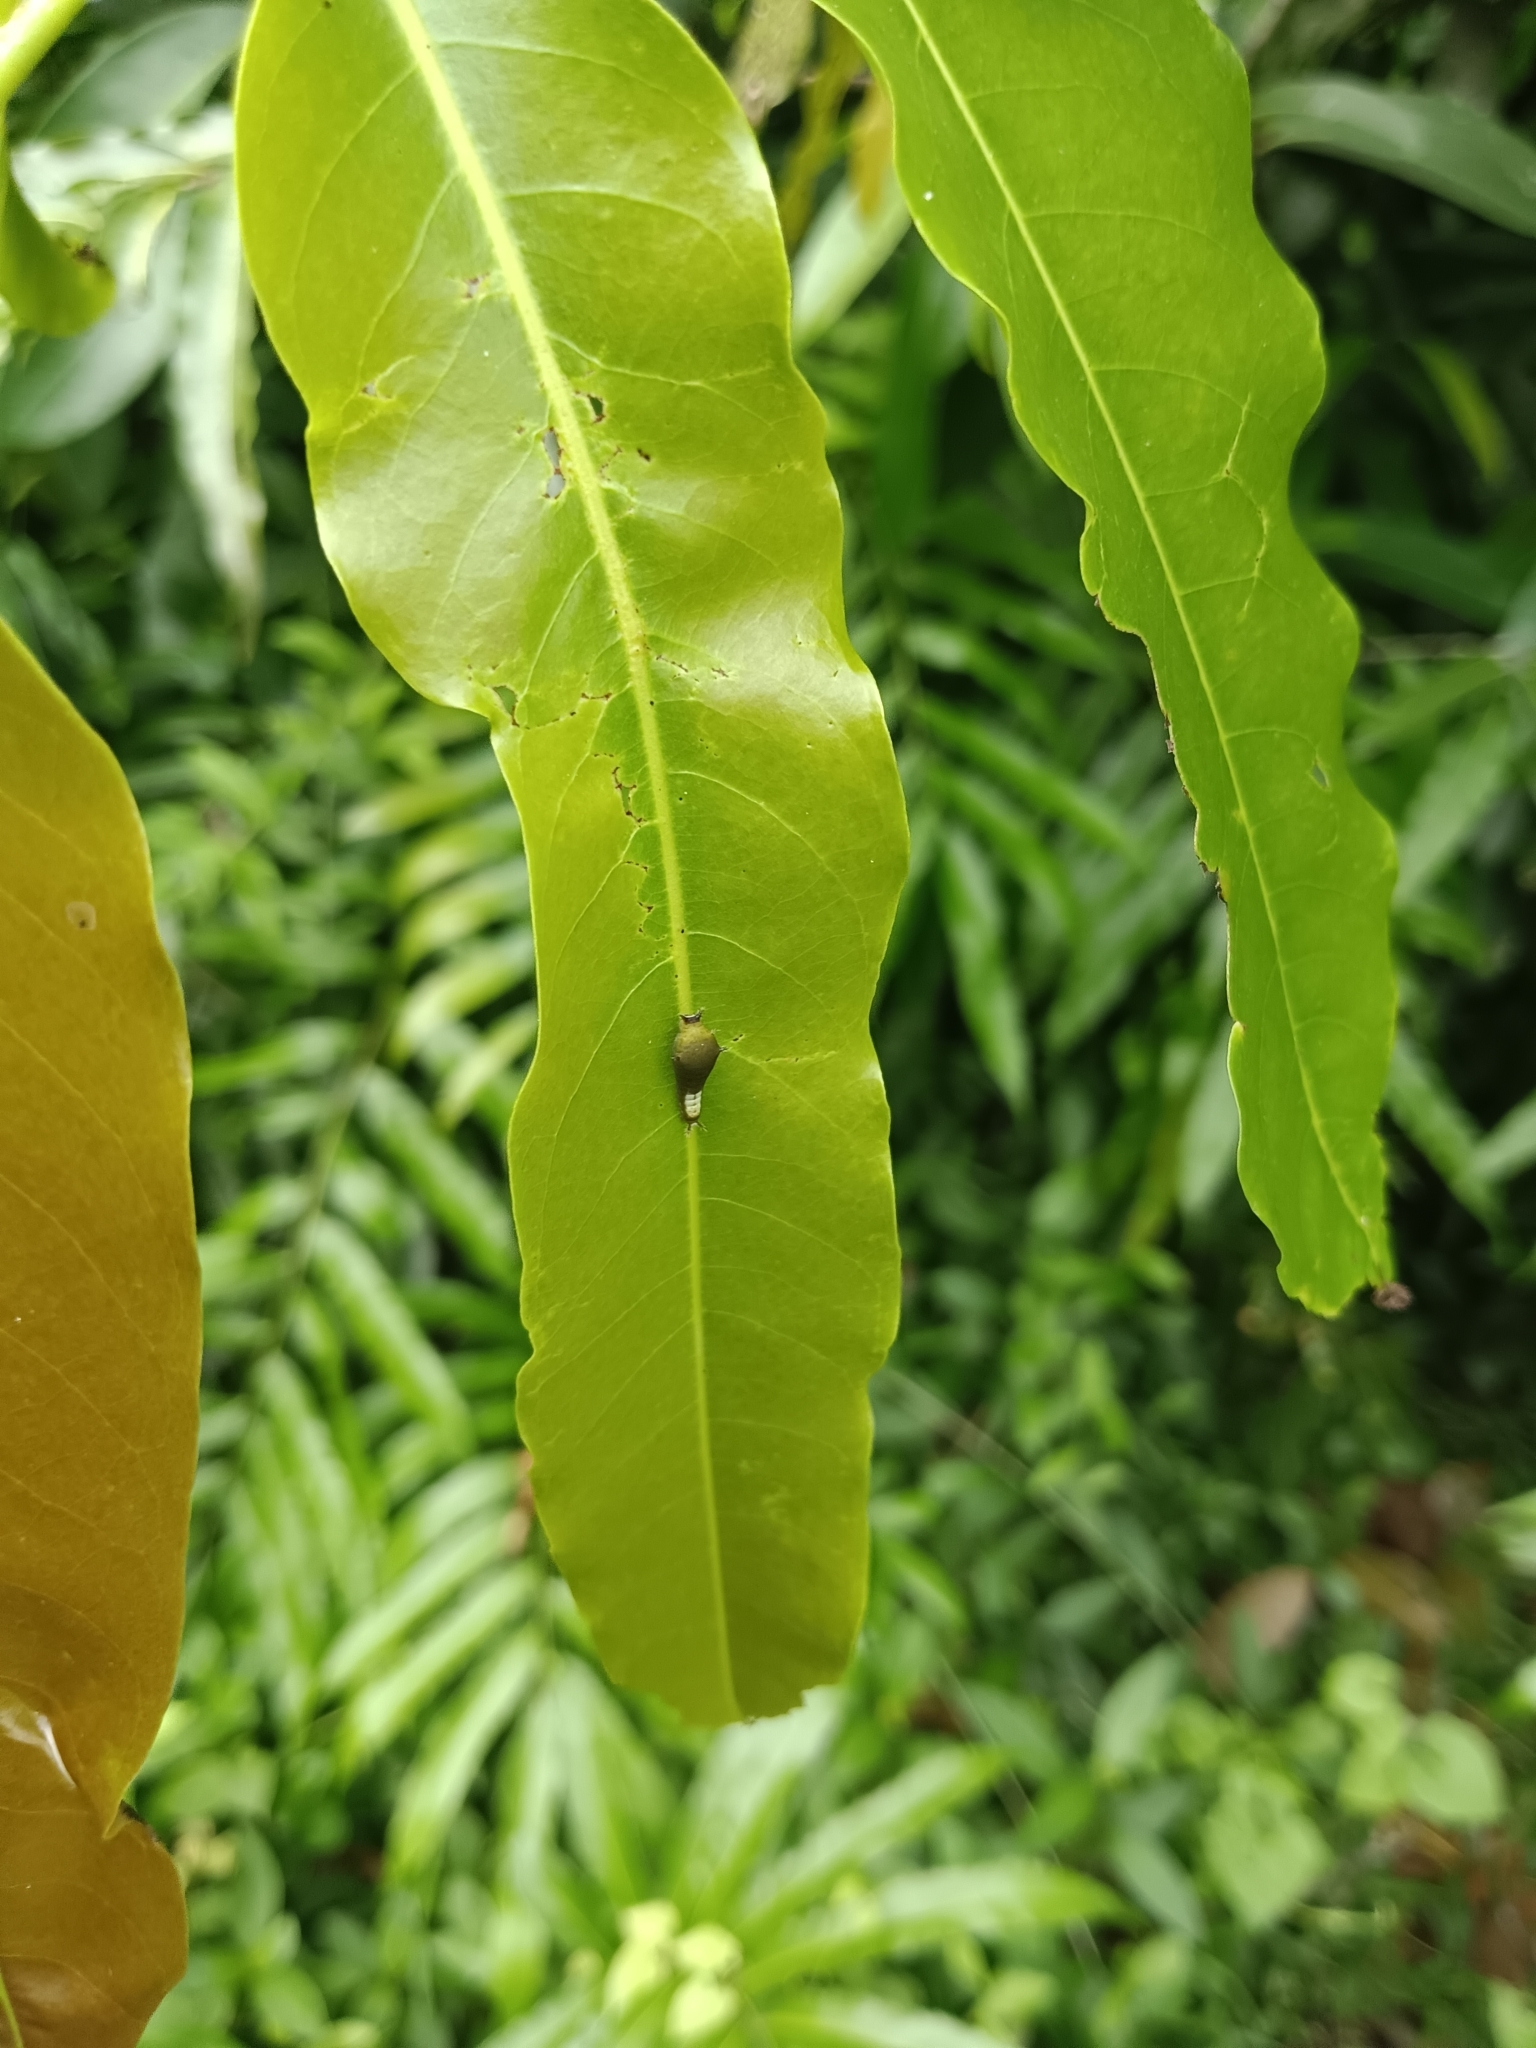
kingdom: Animalia
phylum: Arthropoda
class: Insecta
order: Lepidoptera
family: Papilionidae
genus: Graphium
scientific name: Graphium agamemnon
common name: Tailed jay
